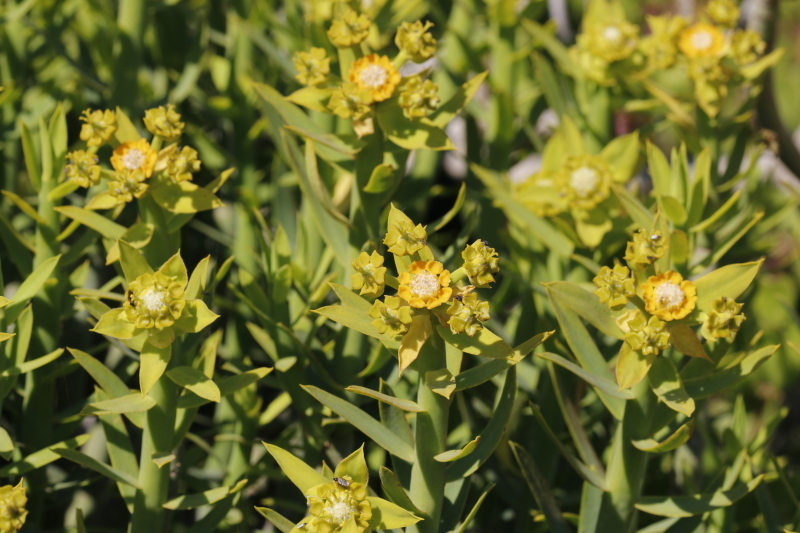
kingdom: Plantae
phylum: Tracheophyta
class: Magnoliopsida
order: Malpighiales
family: Euphorbiaceae
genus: Euphorbia
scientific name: Euphorbia mauritanica
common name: Jackal's-food
